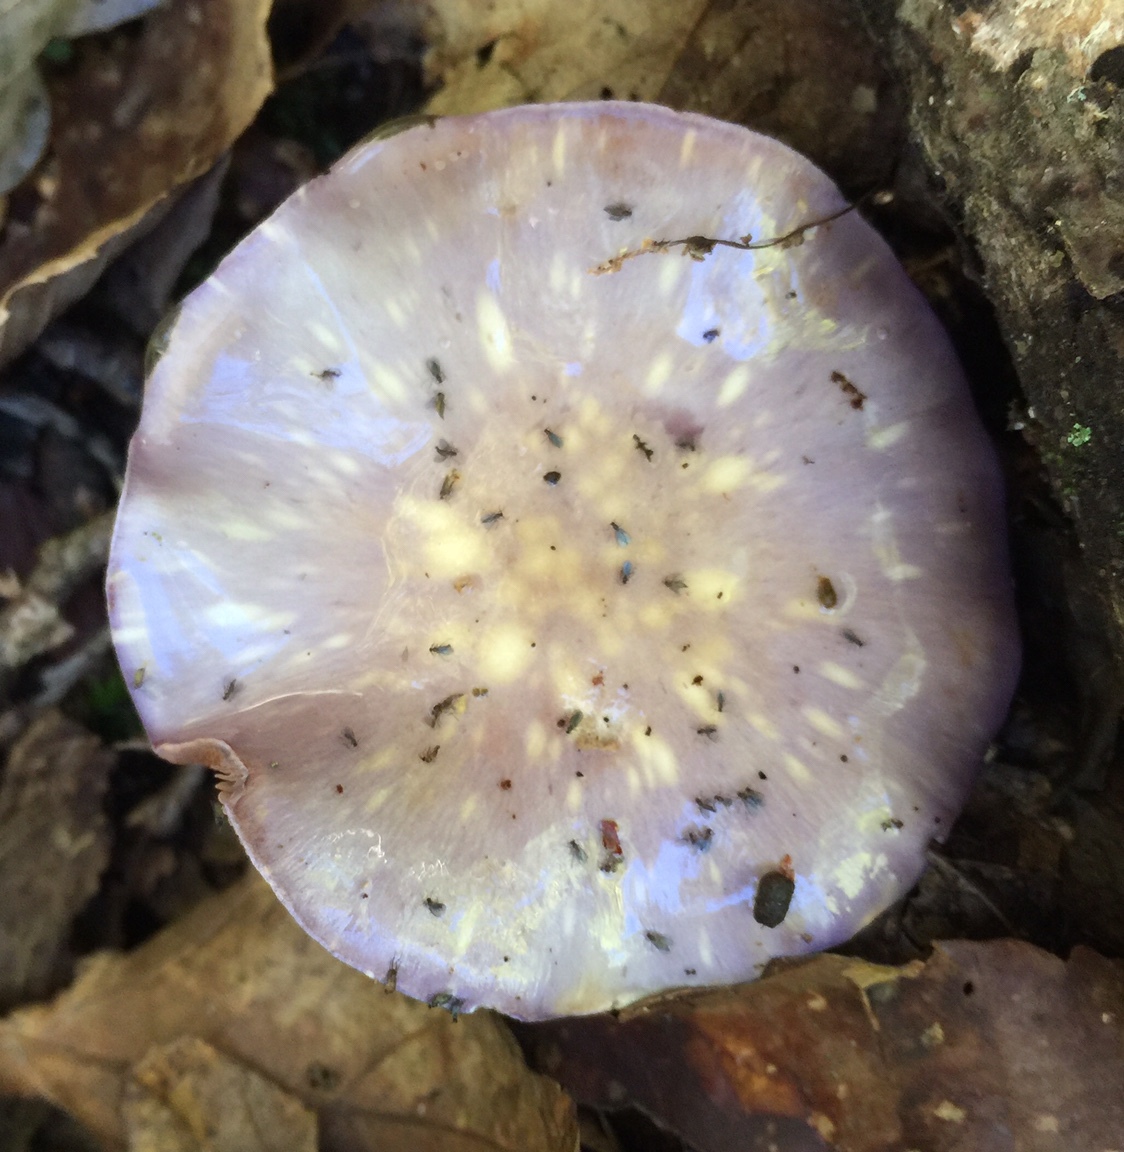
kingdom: Fungi
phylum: Basidiomycota
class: Agaricomycetes
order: Agaricales
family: Cortinariaceae
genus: Cortinarius
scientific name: Cortinarius iodes
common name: Viscid violet cort
